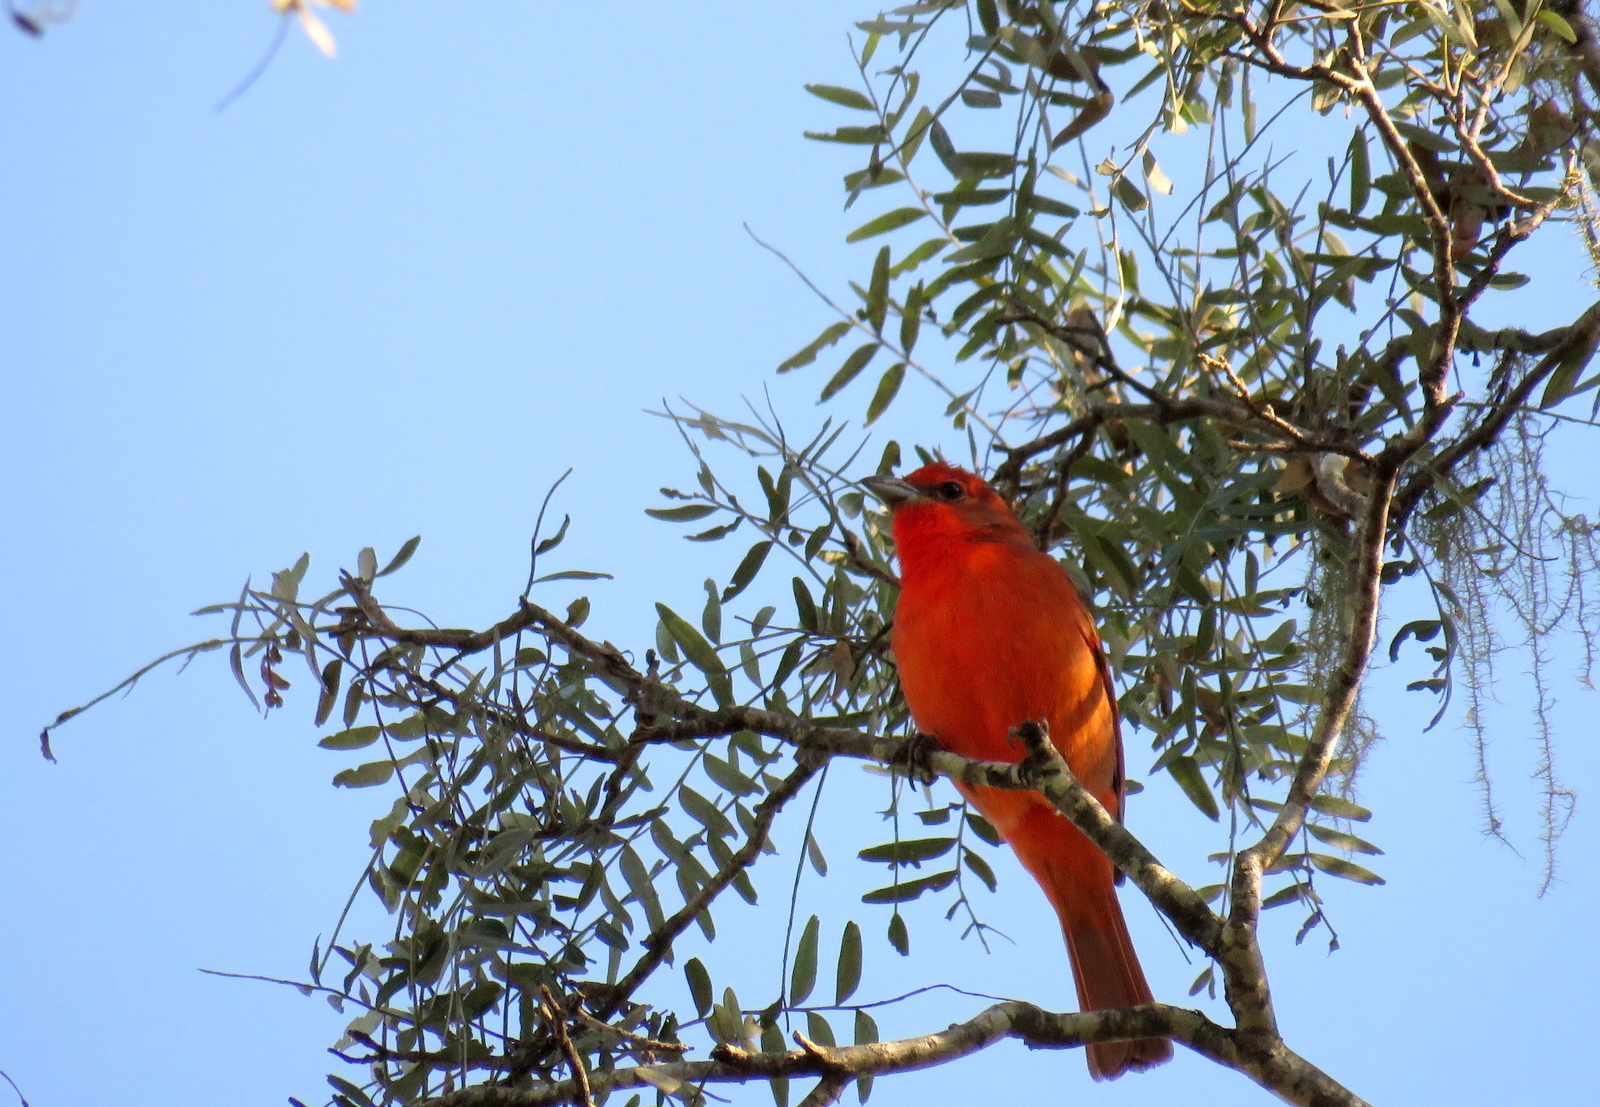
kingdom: Animalia
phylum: Chordata
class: Aves
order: Passeriformes
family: Cardinalidae
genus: Piranga
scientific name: Piranga flava
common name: Red tanager
